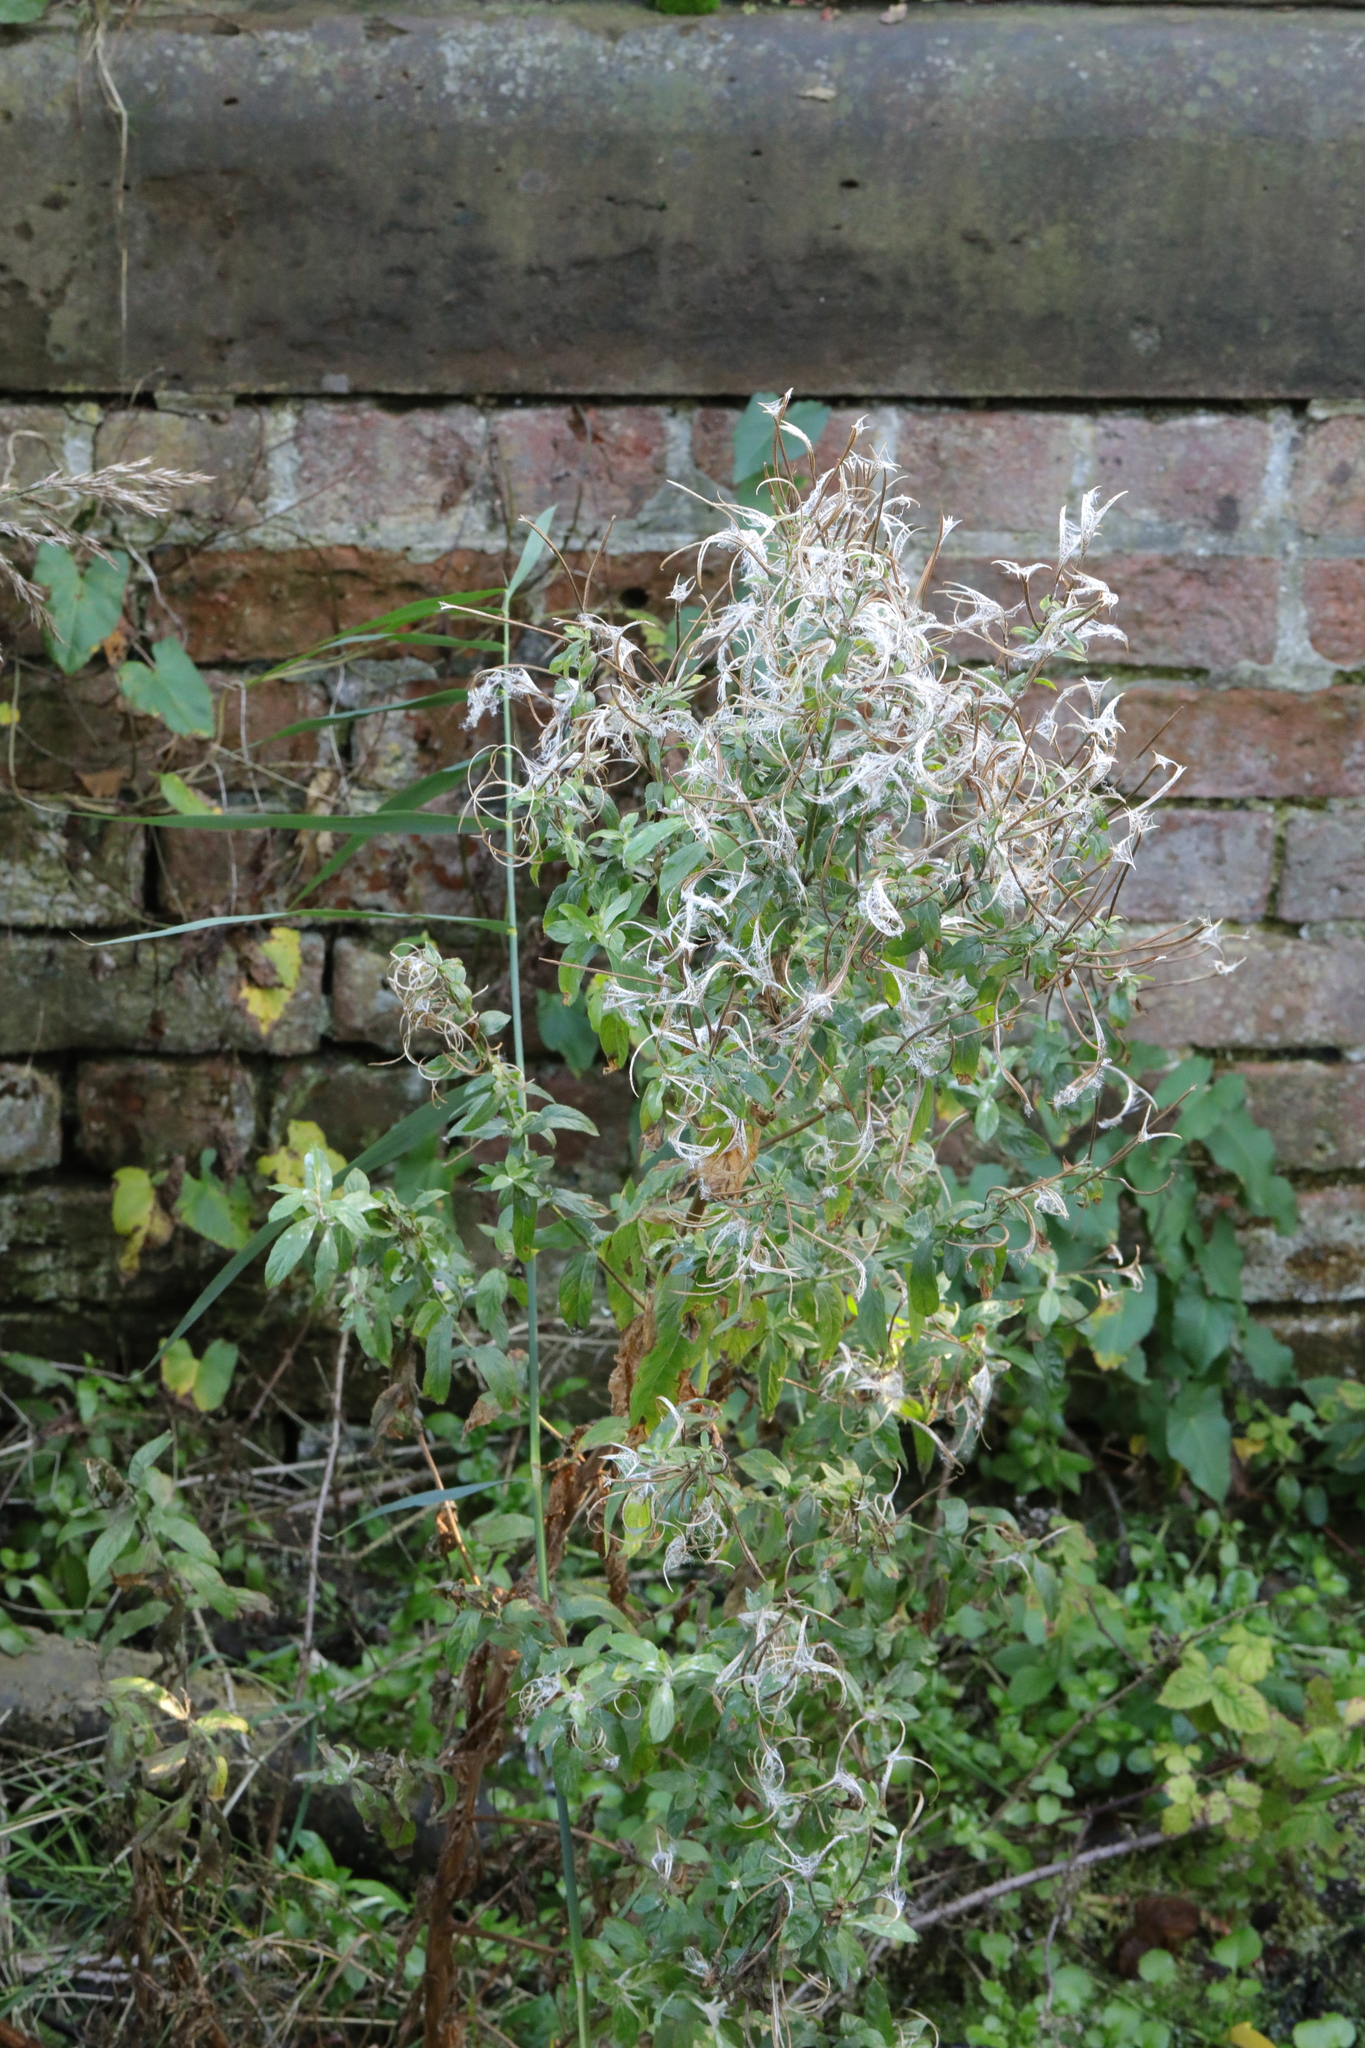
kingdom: Plantae
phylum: Tracheophyta
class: Magnoliopsida
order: Myrtales
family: Onagraceae
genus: Epilobium
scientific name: Epilobium hirsutum
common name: Great willowherb
